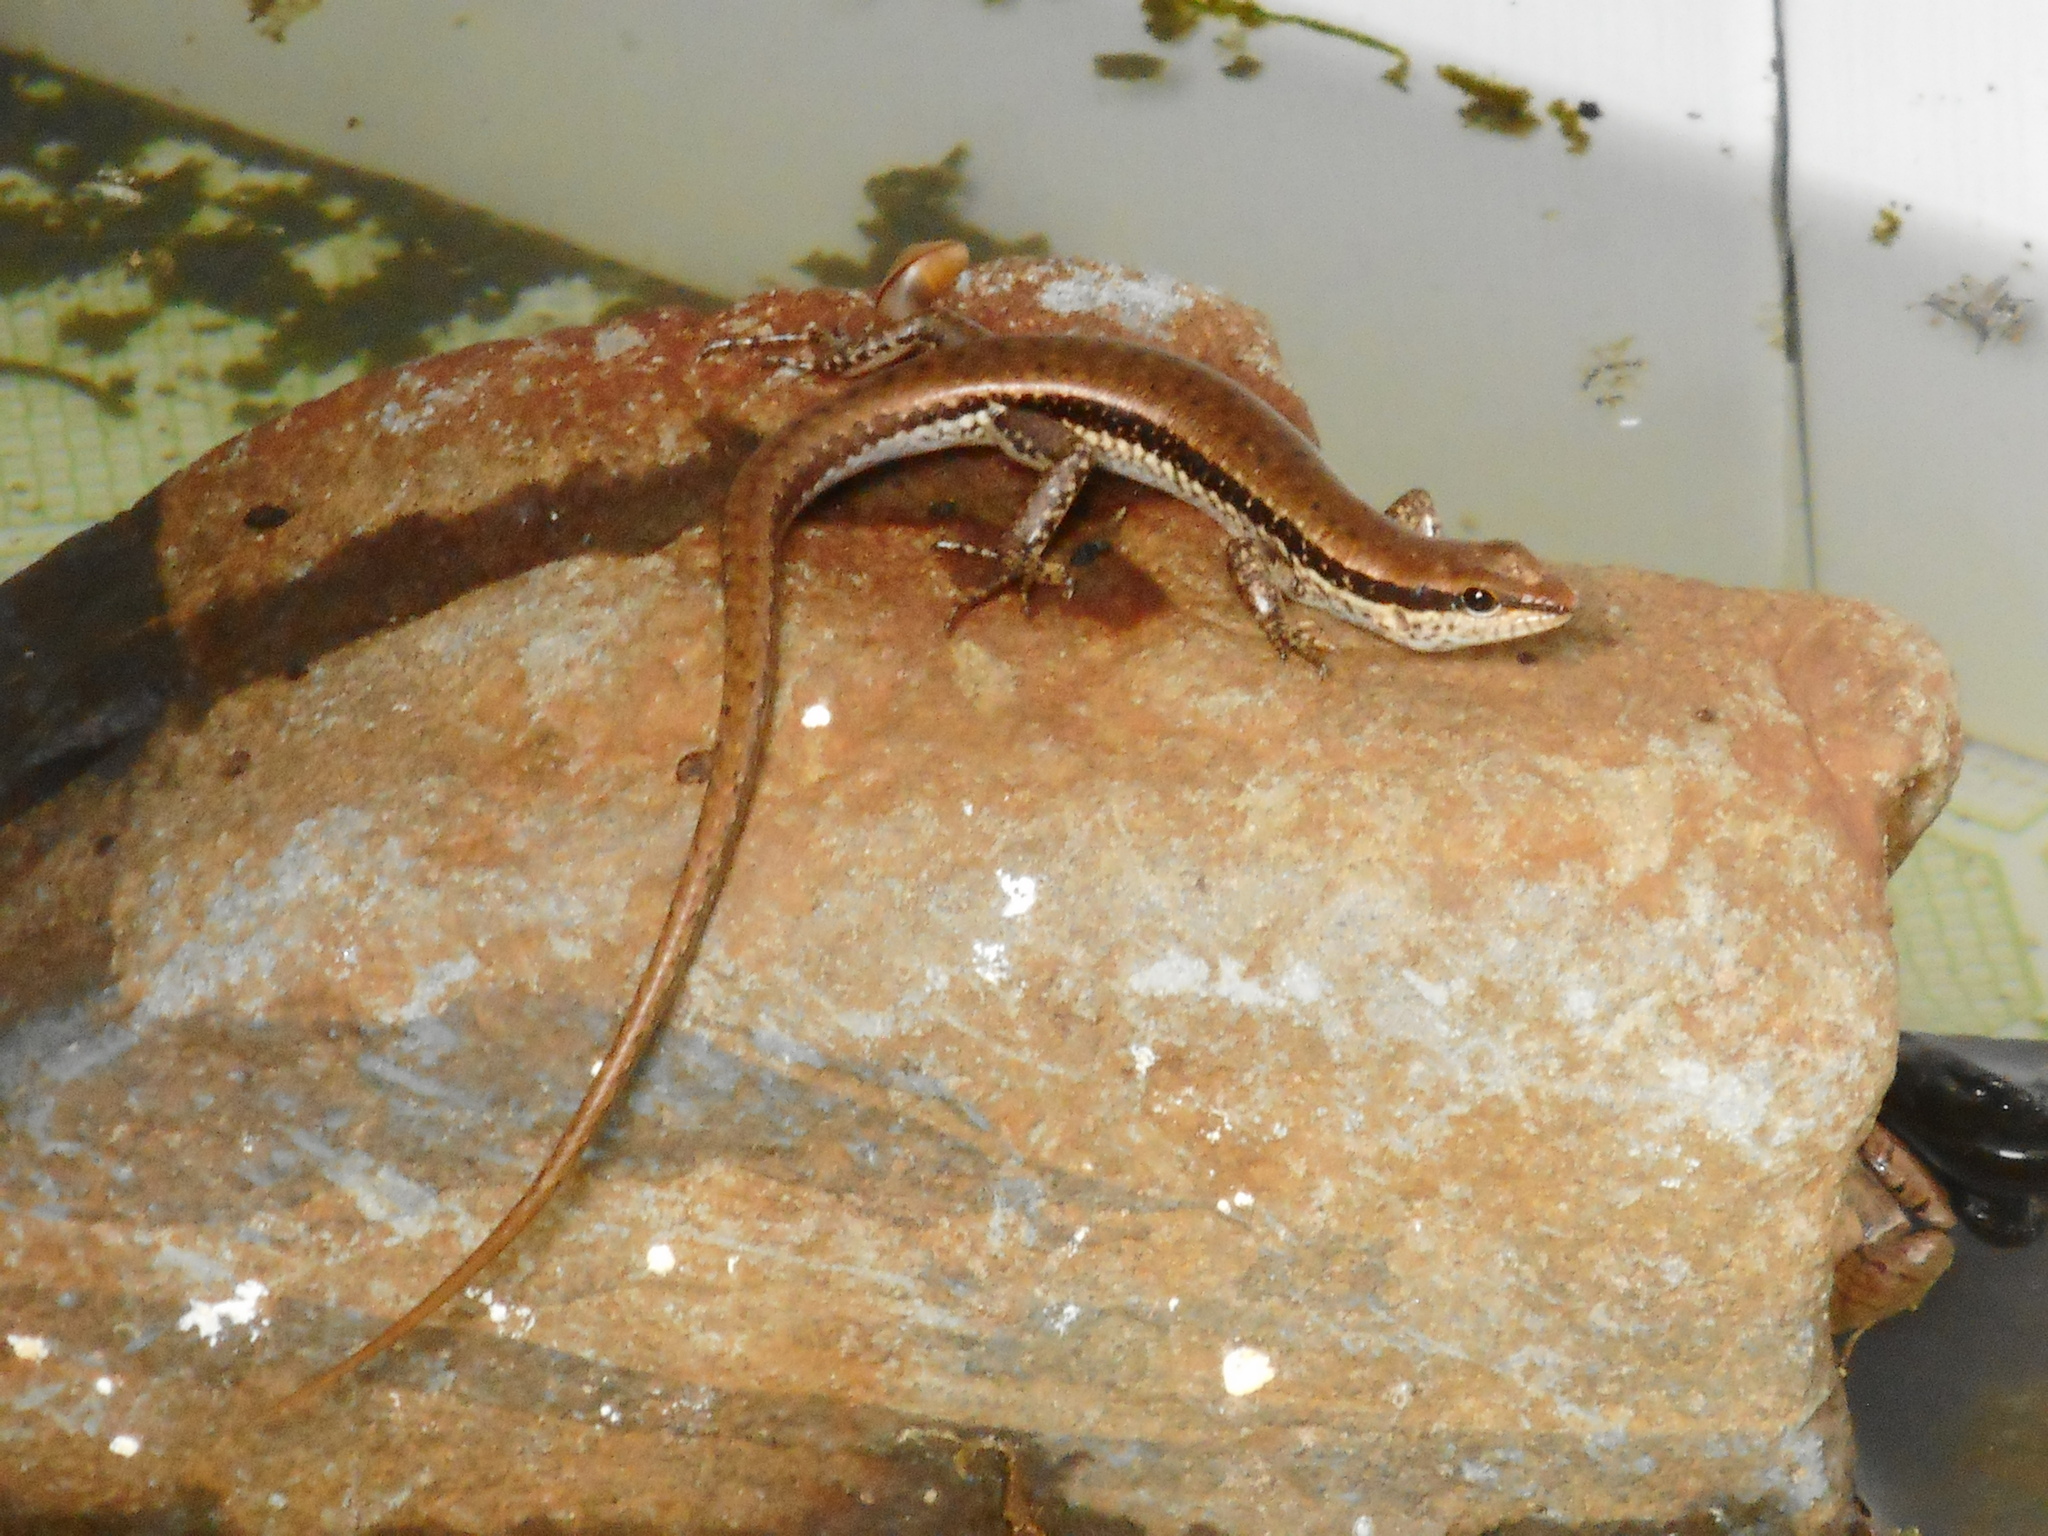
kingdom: Animalia
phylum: Chordata
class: Squamata
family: Scincidae
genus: Sphenomorphus
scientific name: Sphenomorphus maculatus
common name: Maculated forest skink
